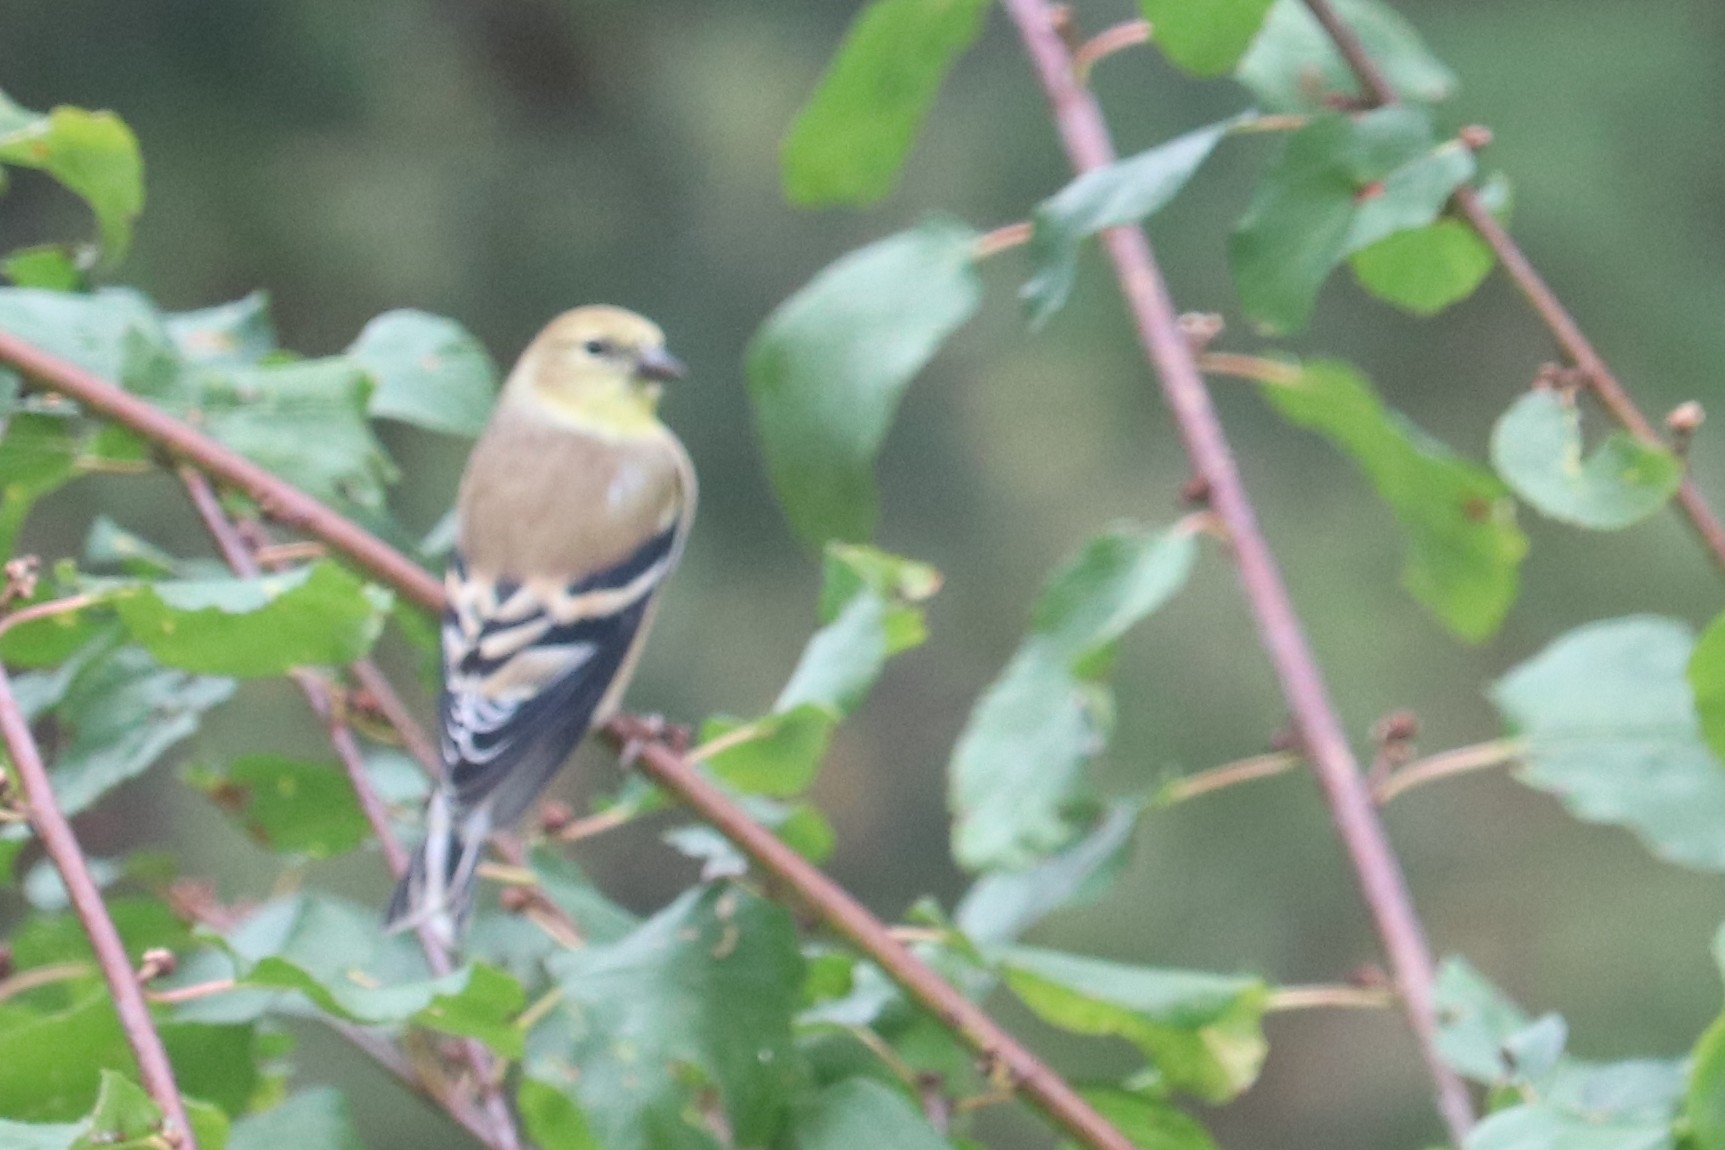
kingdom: Animalia
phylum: Chordata
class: Aves
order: Passeriformes
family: Fringillidae
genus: Spinus
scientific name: Spinus tristis
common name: American goldfinch
